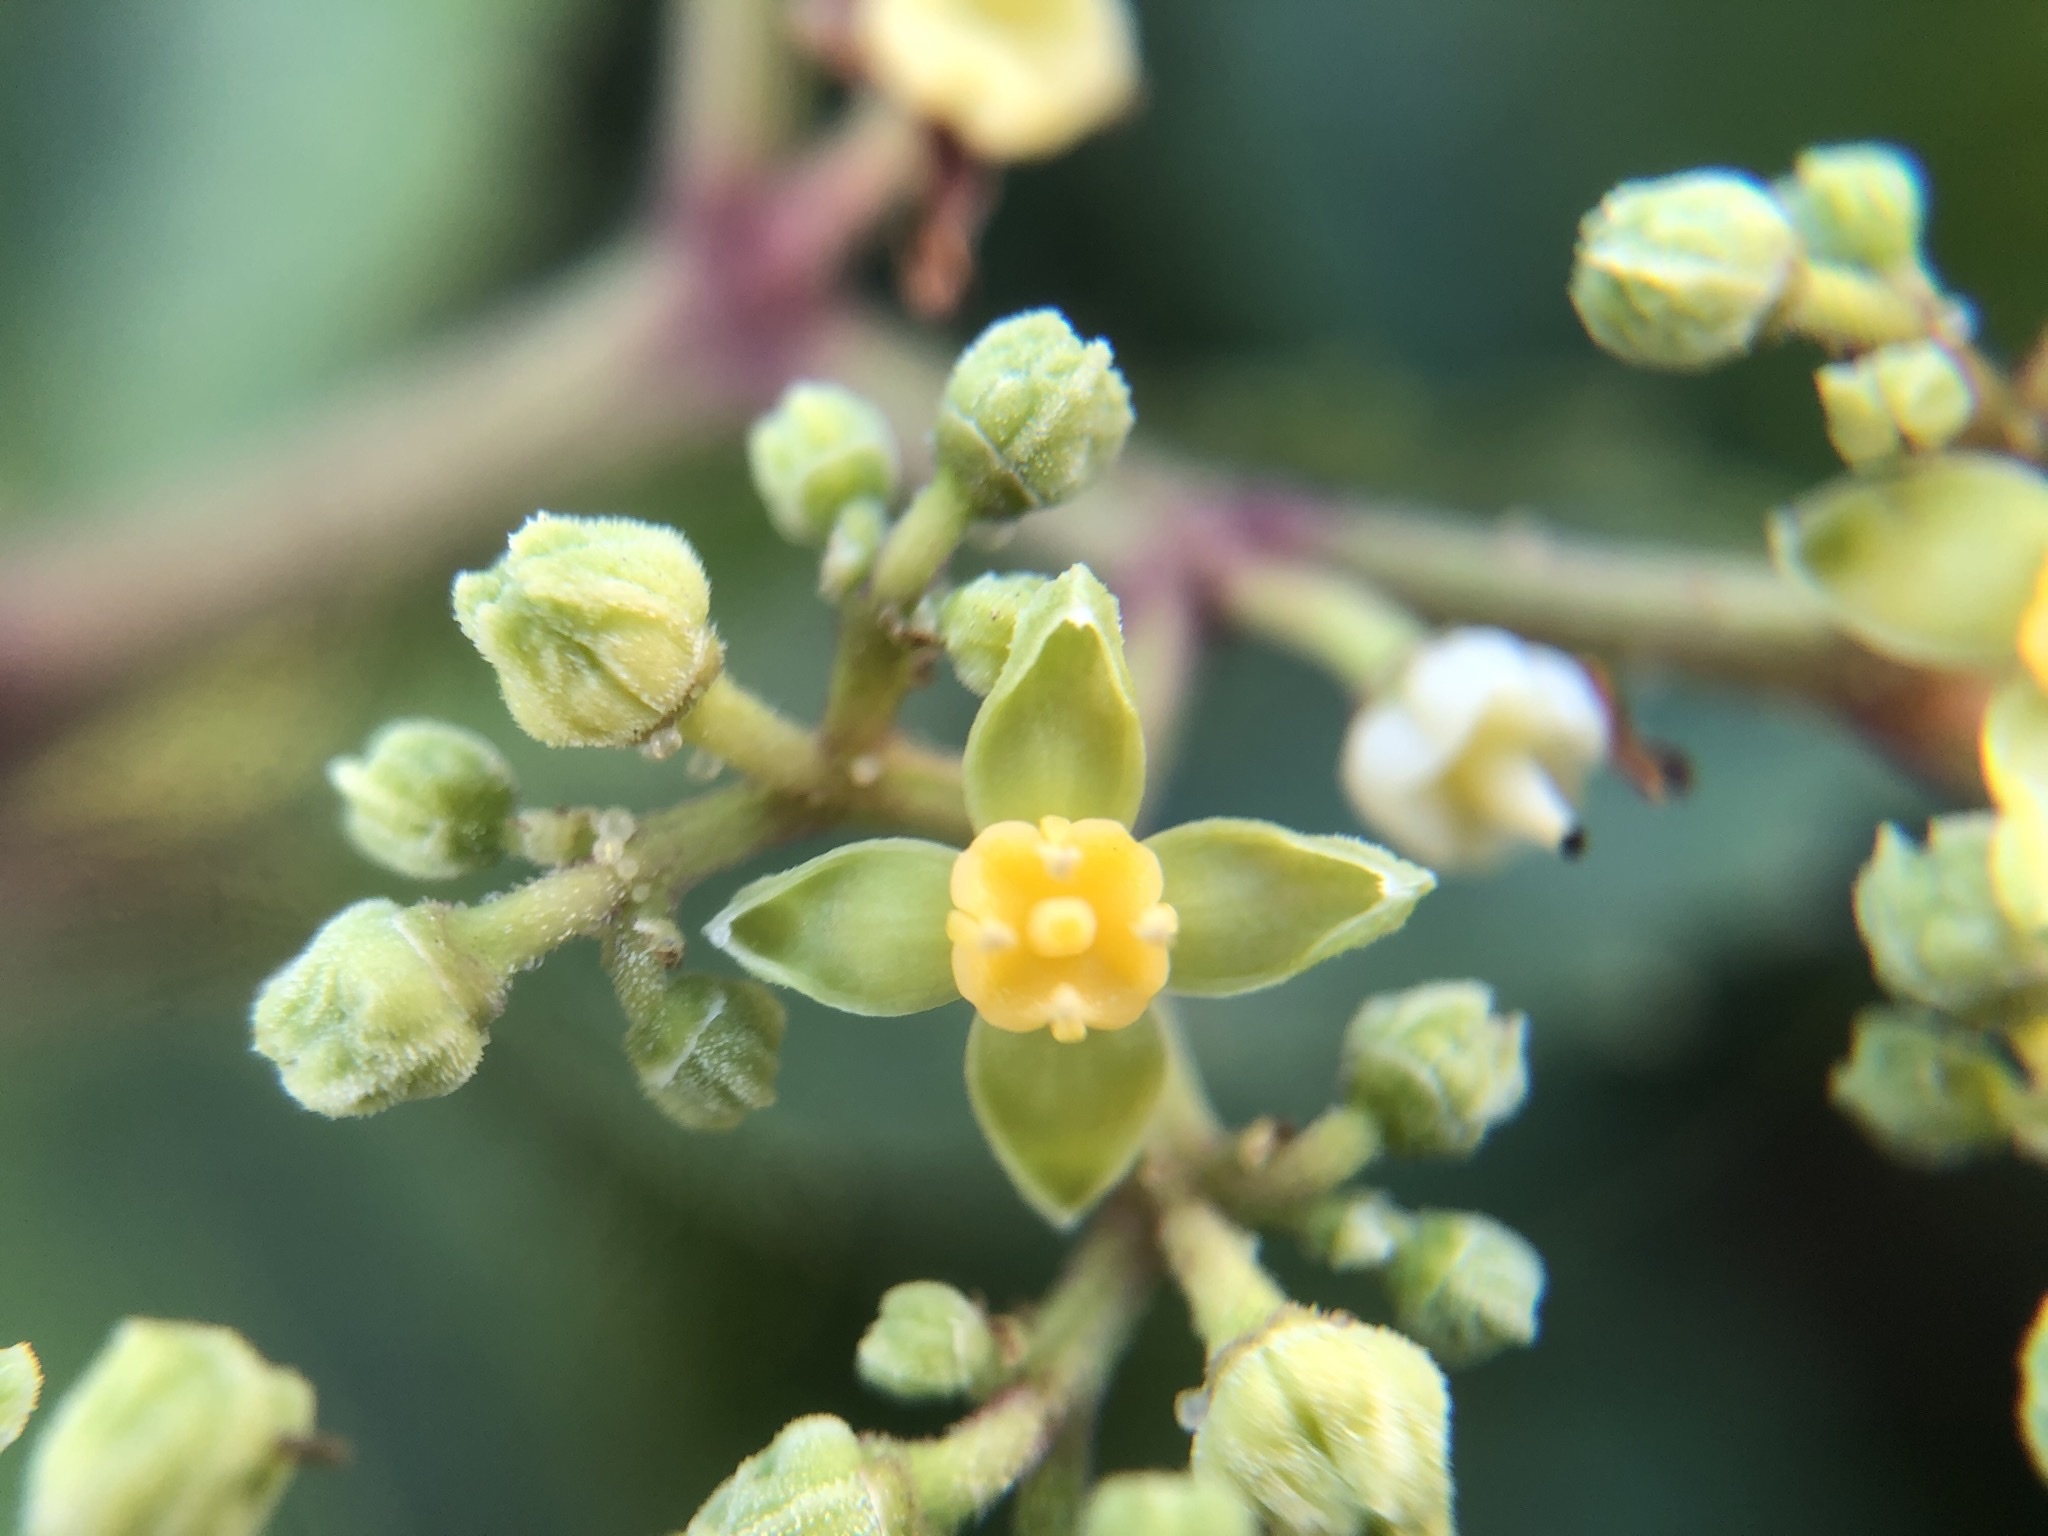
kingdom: Plantae
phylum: Tracheophyta
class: Magnoliopsida
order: Vitales
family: Vitaceae
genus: Causonis
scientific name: Causonis japonica
